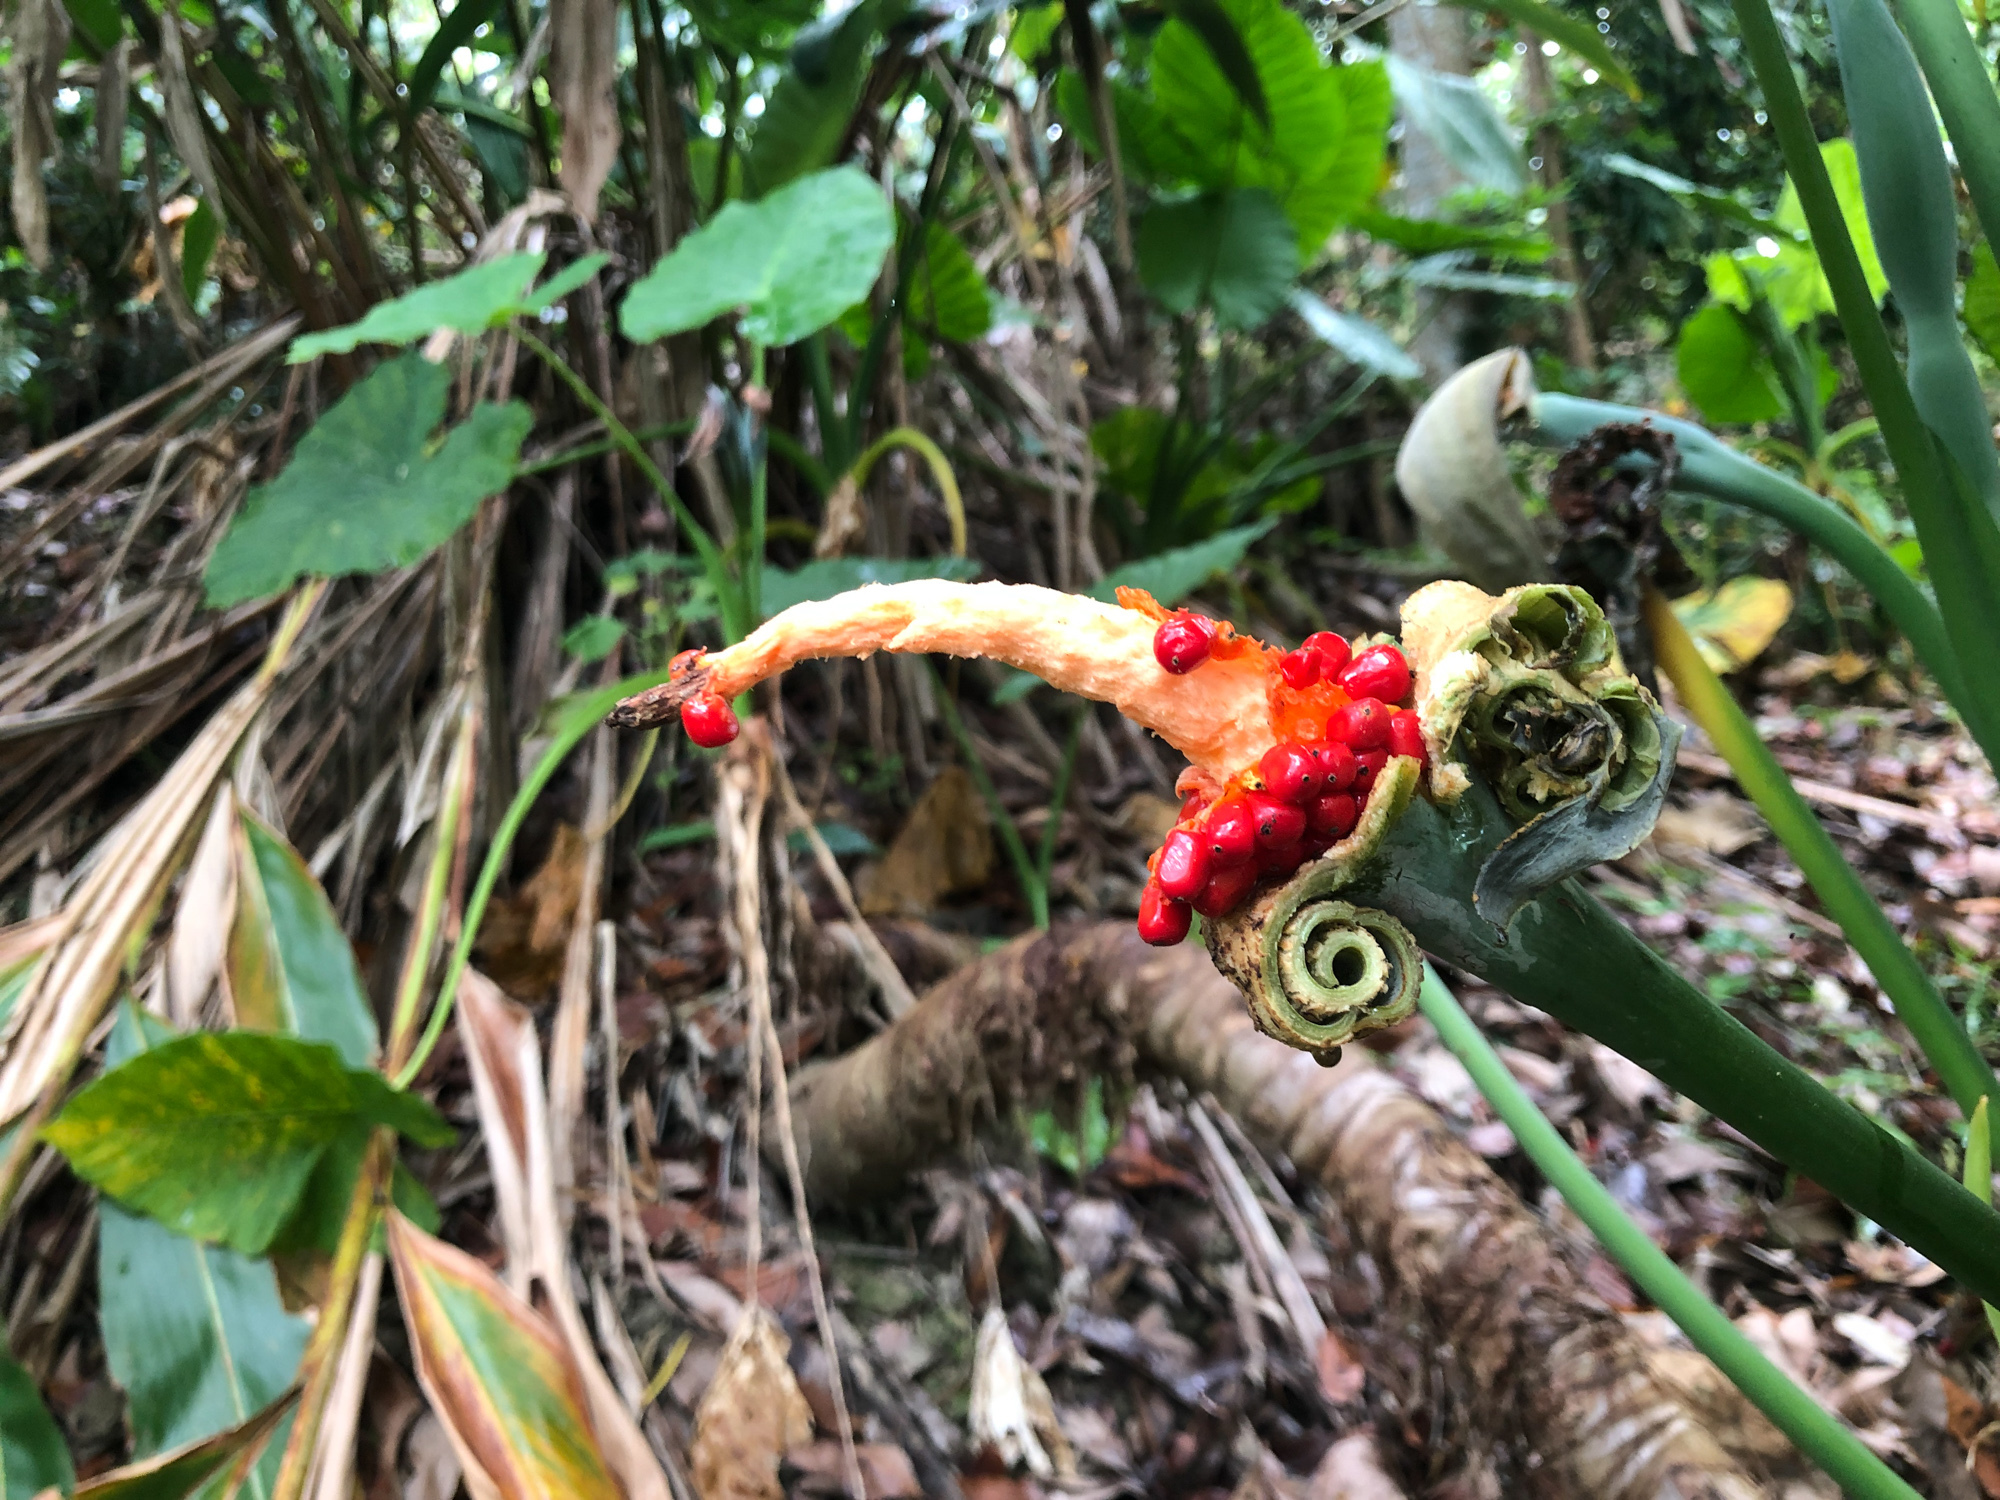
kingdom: Plantae
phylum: Tracheophyta
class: Liliopsida
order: Alismatales
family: Araceae
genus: Alocasia
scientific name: Alocasia odora
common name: Asian taro
